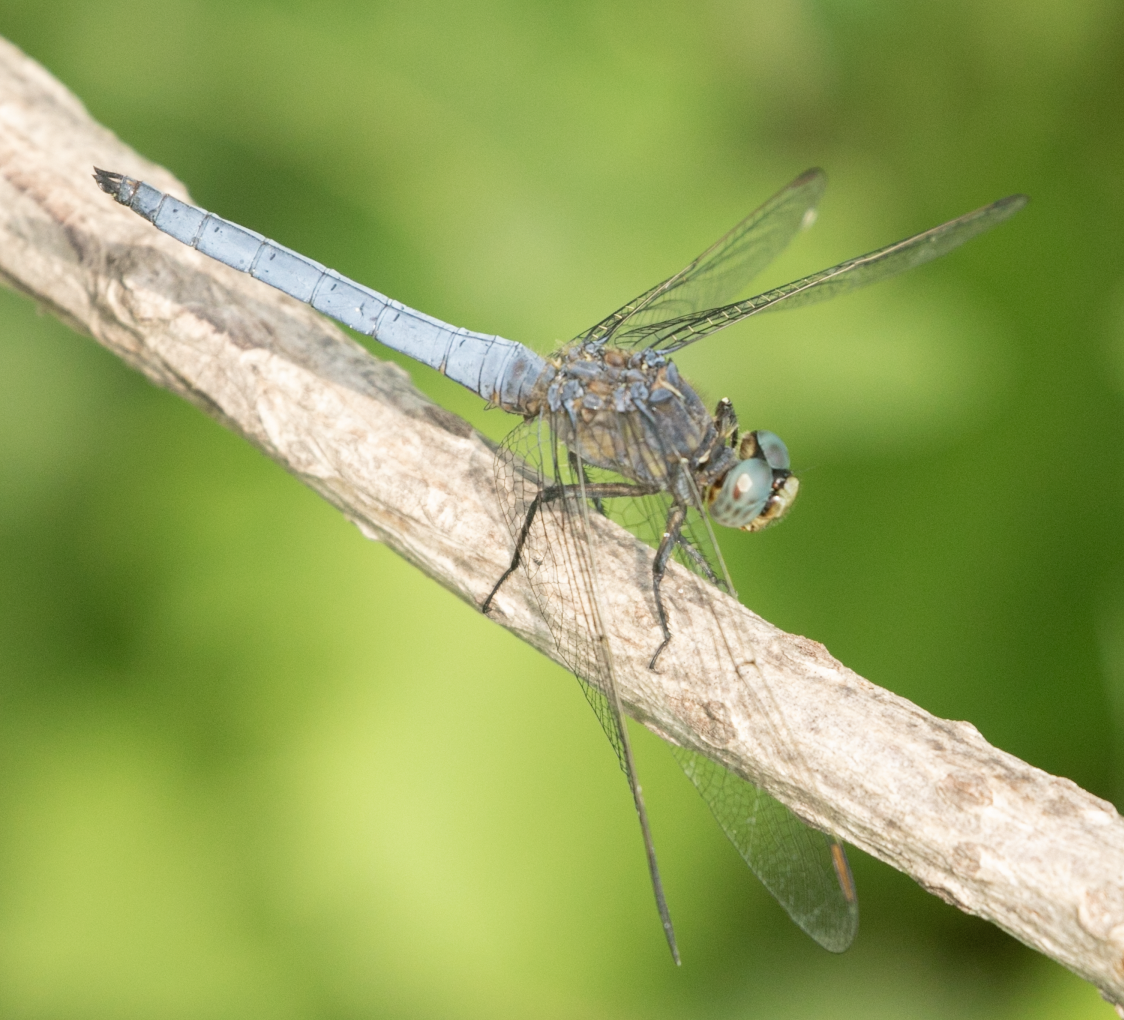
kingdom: Animalia
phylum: Arthropoda
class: Insecta
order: Odonata
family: Libellulidae
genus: Orthetrum
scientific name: Orthetrum coerulescens
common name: Keeled skimmer
